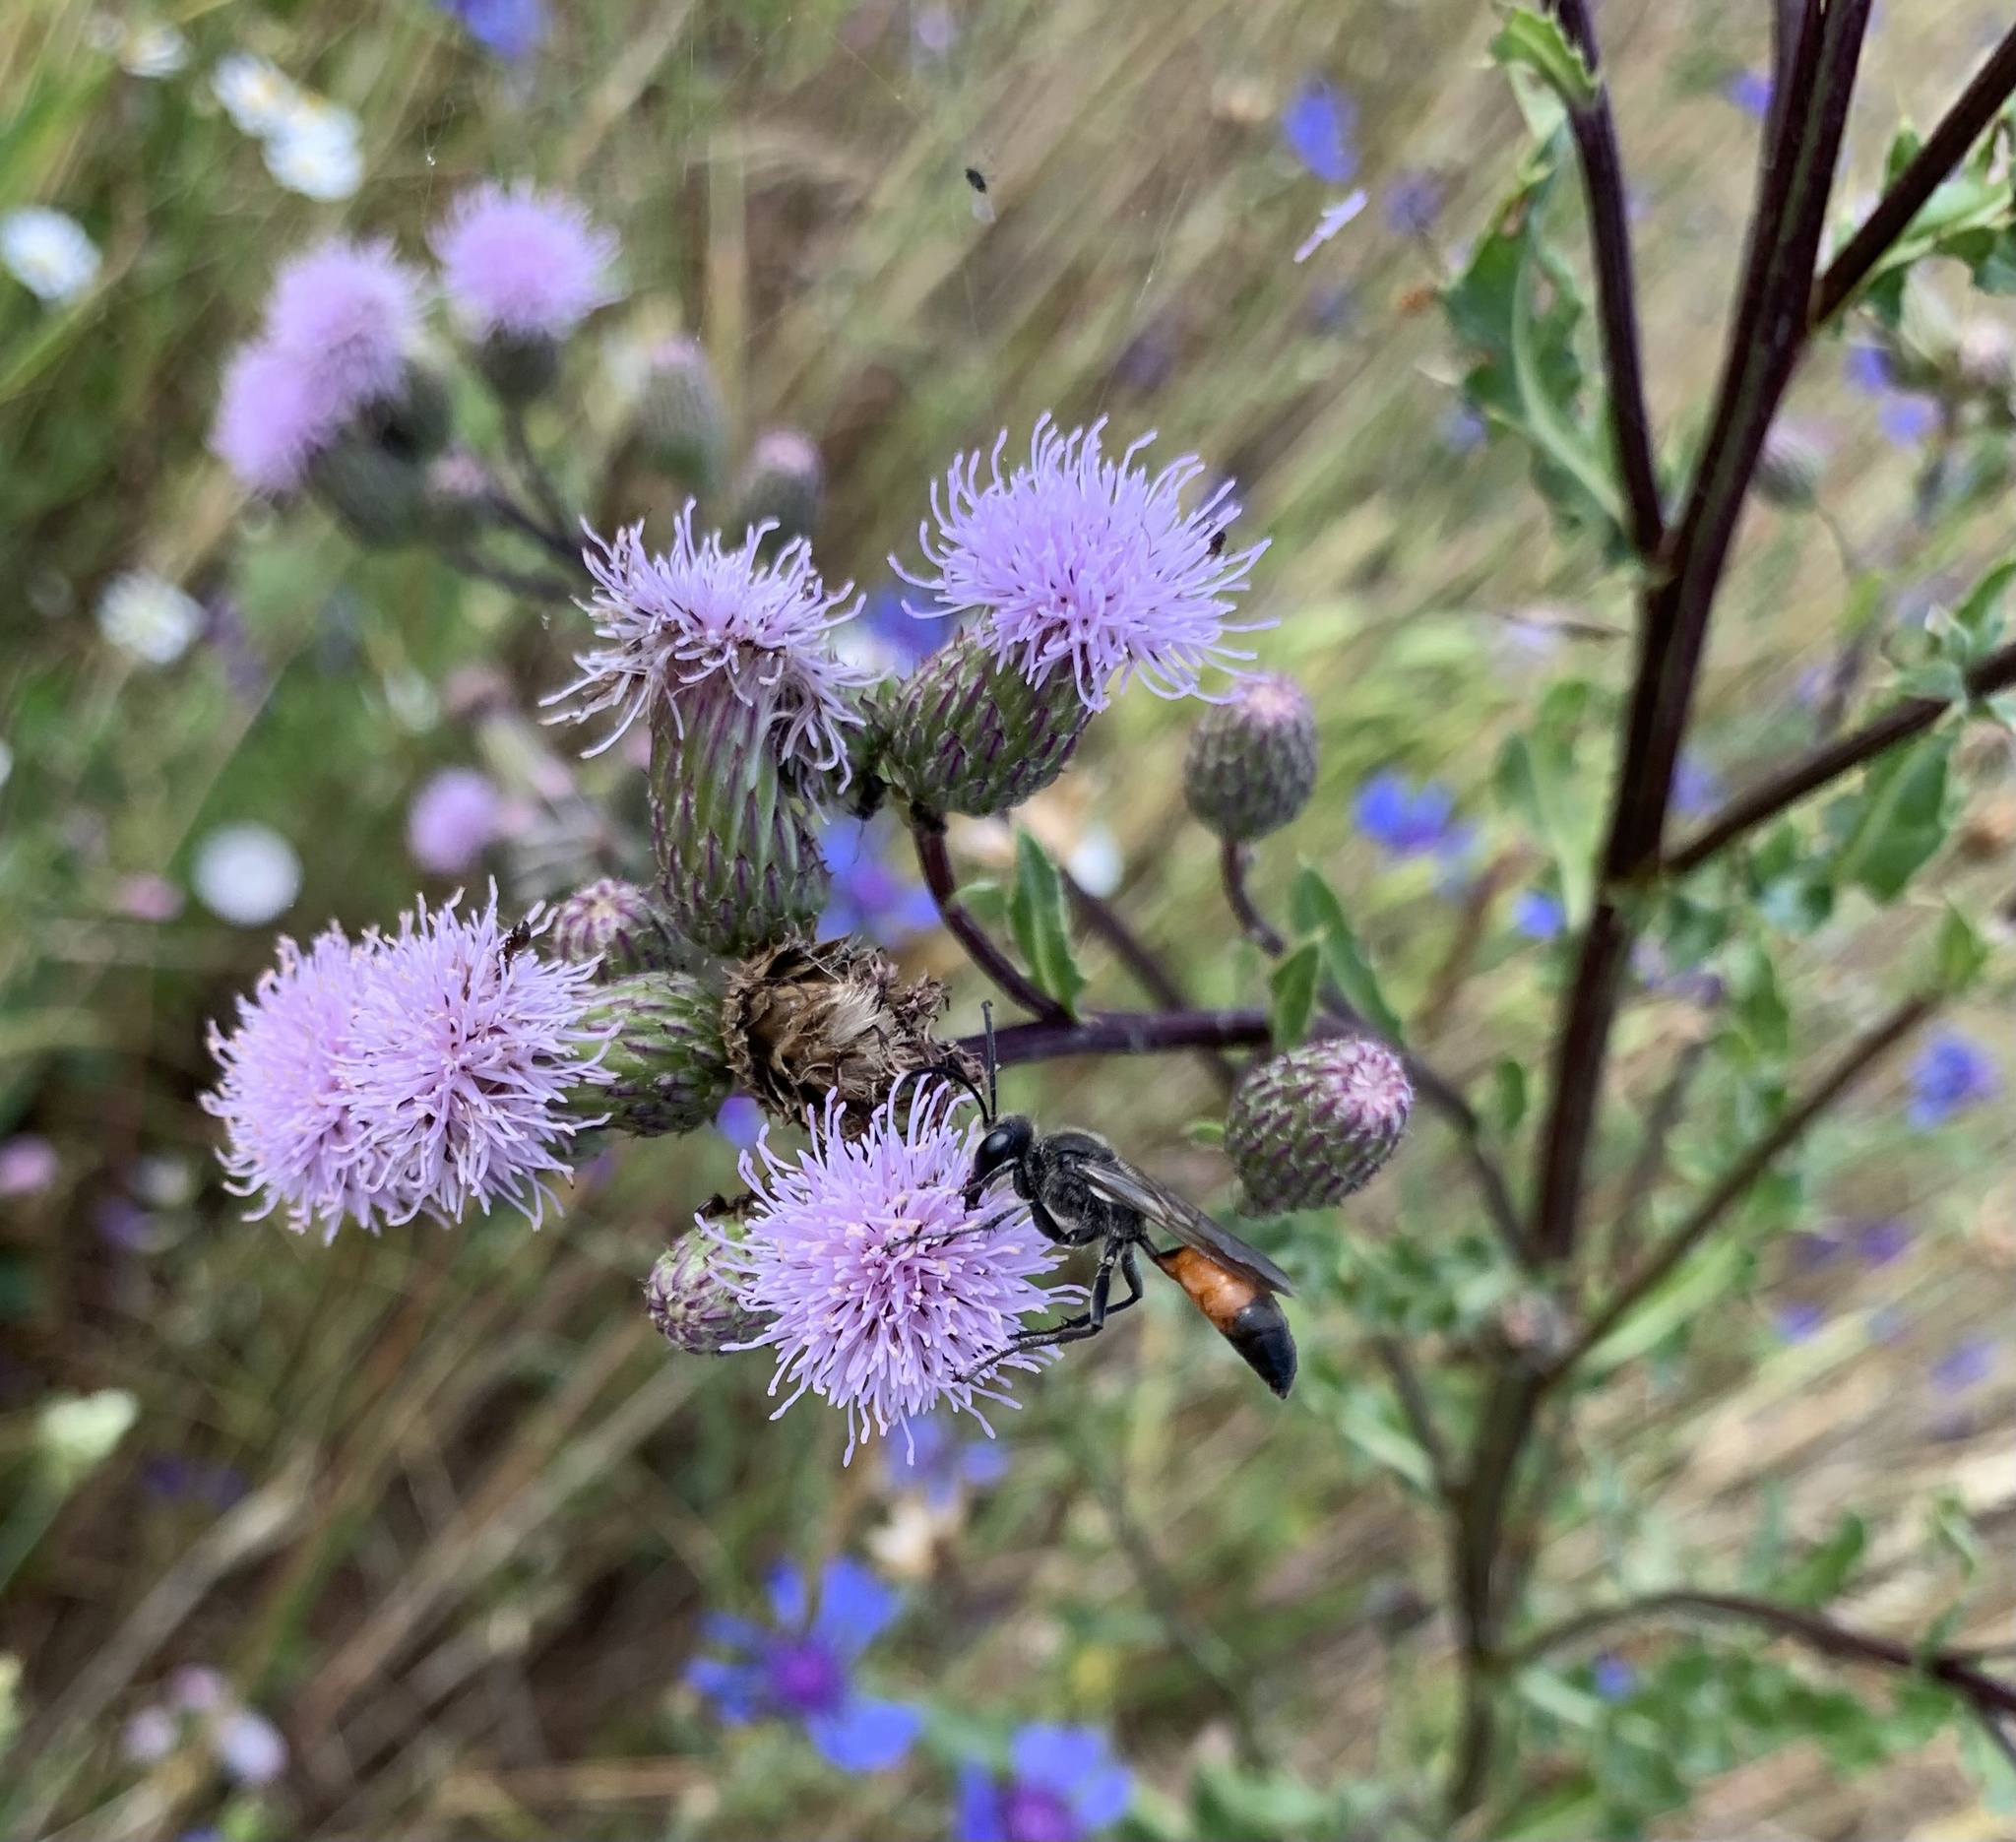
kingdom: Animalia
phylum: Arthropoda
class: Insecta
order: Hymenoptera
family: Sphecidae
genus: Sphex
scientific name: Sphex funerarius
